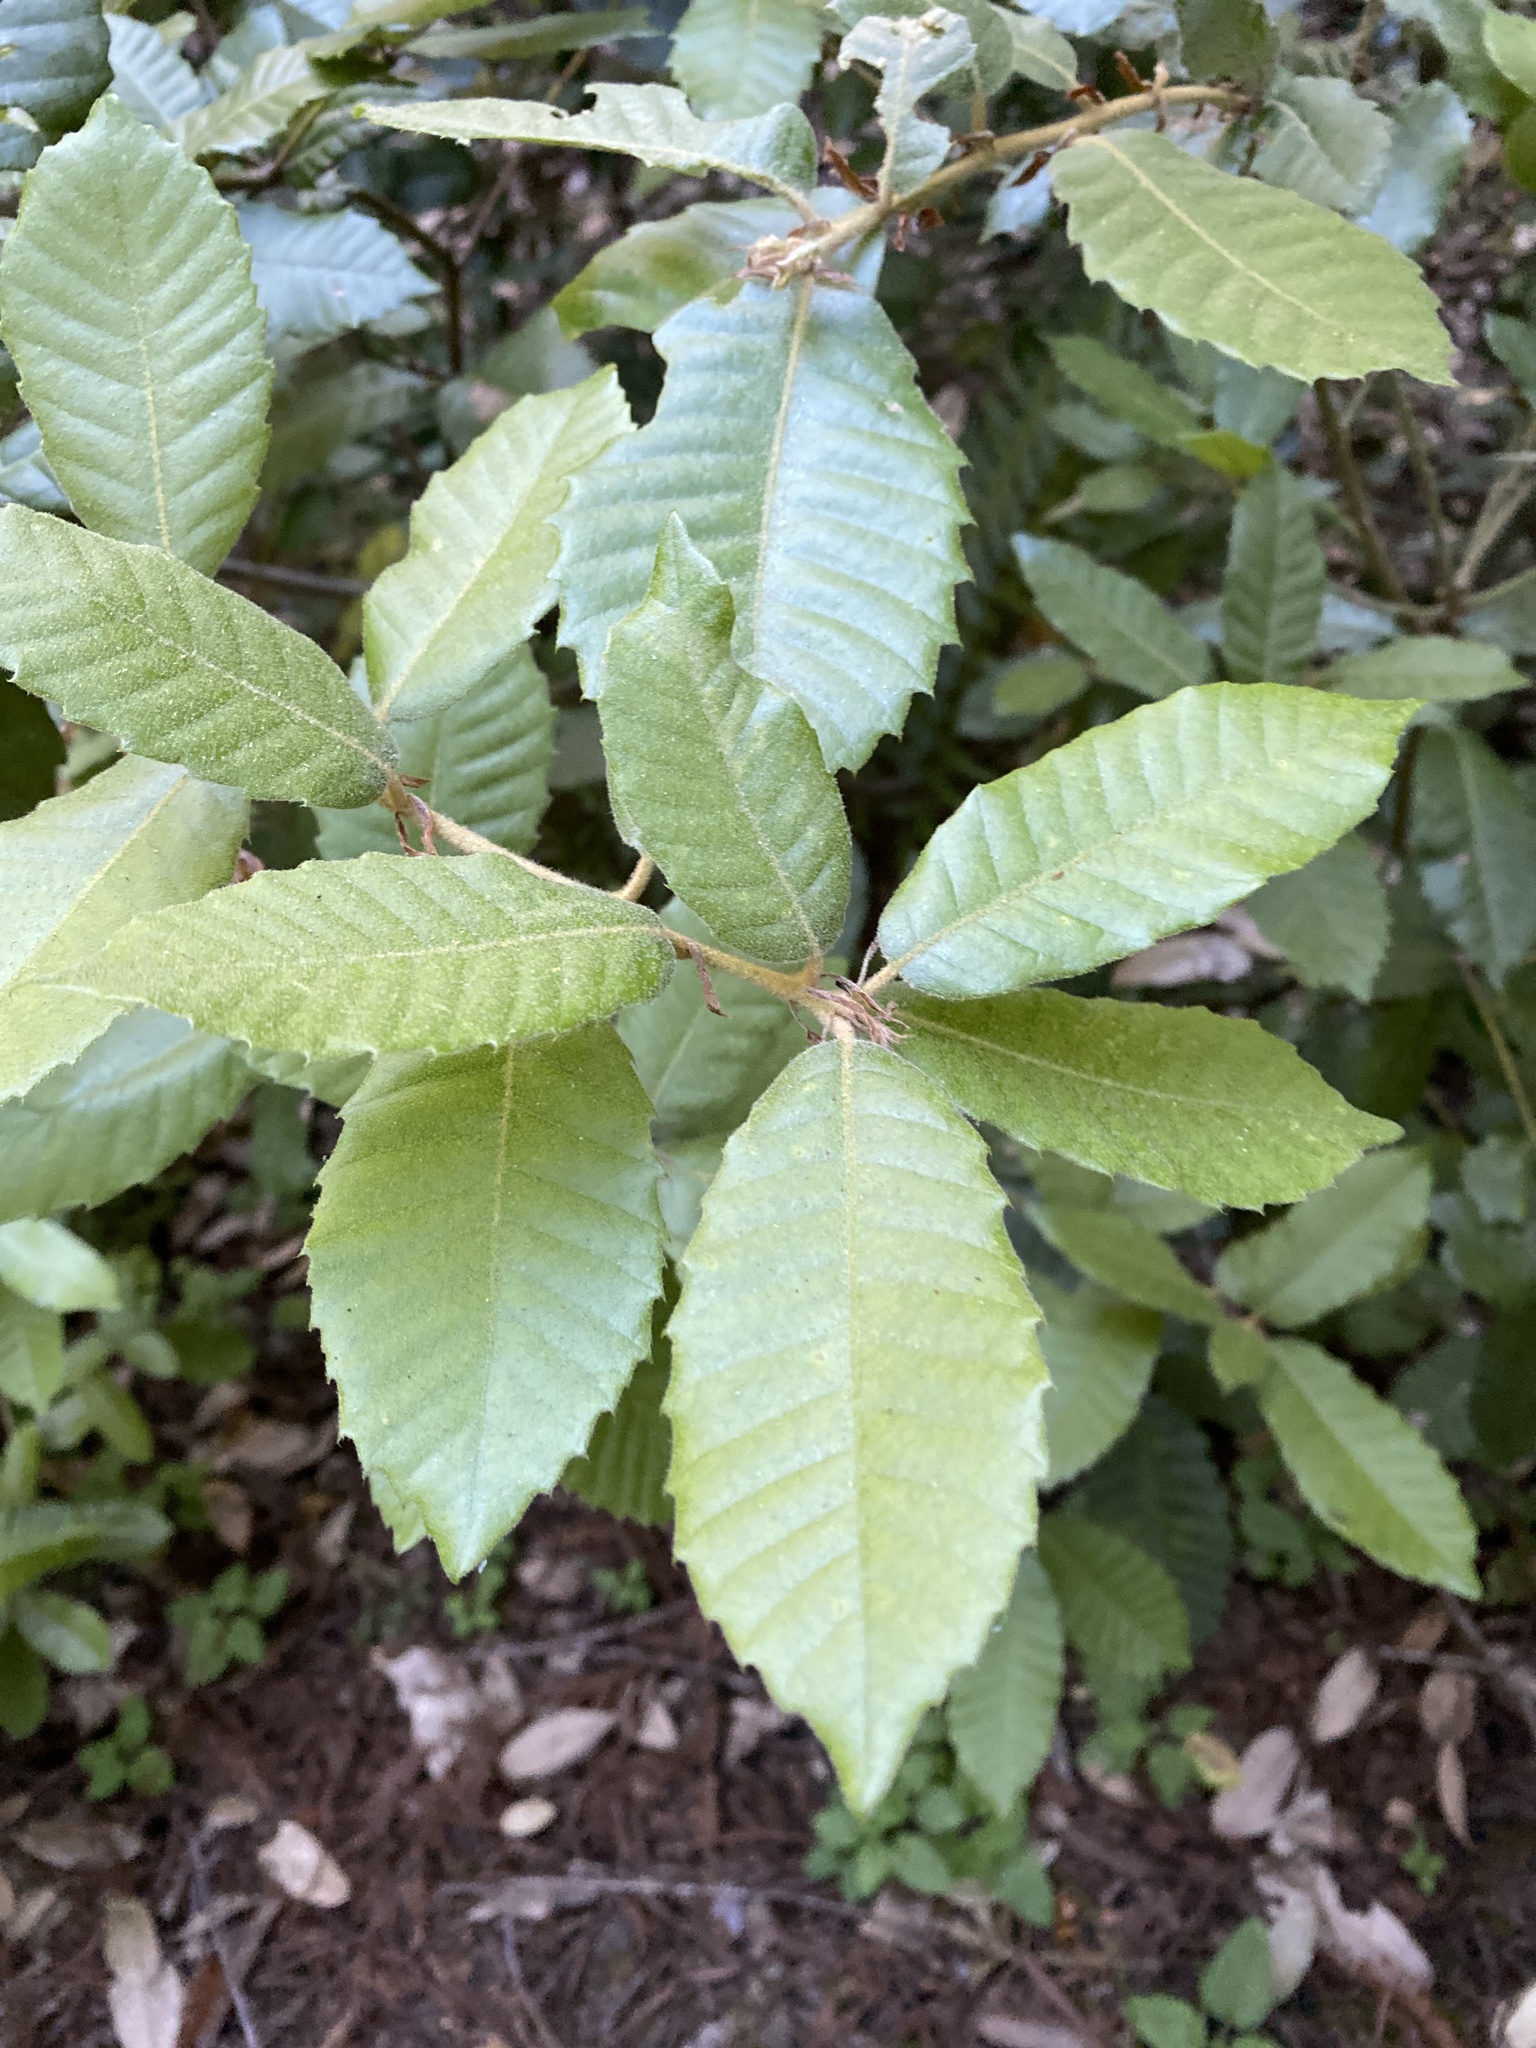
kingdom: Plantae
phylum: Tracheophyta
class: Magnoliopsida
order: Fagales
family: Fagaceae
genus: Notholithocarpus
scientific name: Notholithocarpus densiflorus
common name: Tan bark oak
